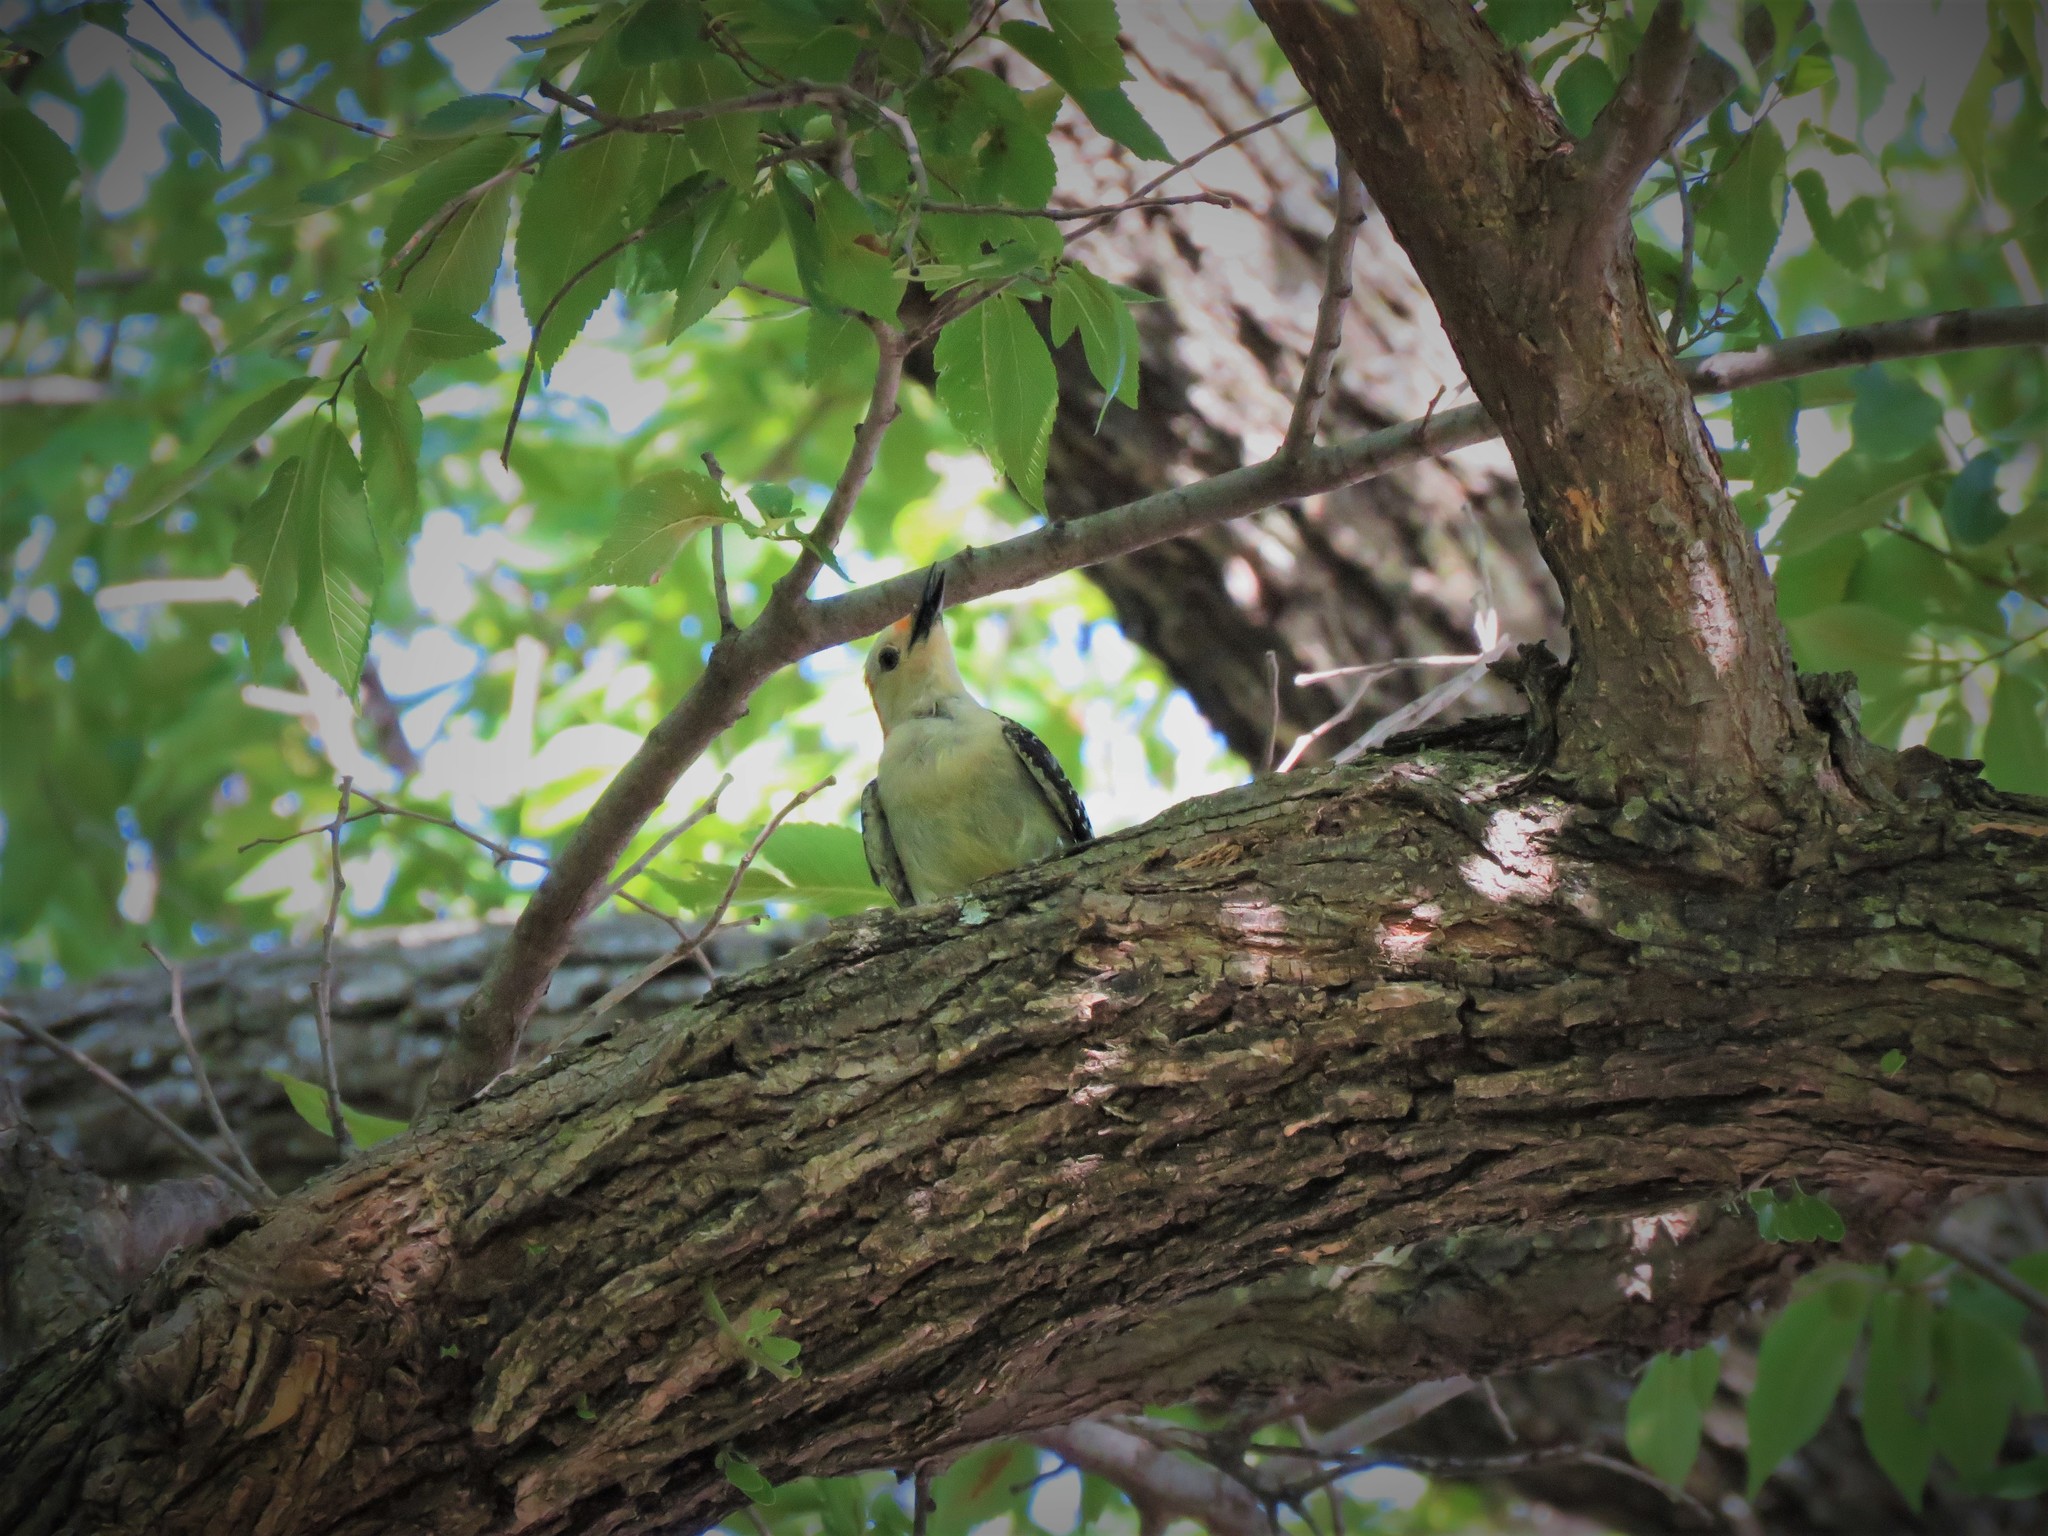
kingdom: Animalia
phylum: Chordata
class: Aves
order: Piciformes
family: Picidae
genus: Melanerpes
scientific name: Melanerpes carolinus
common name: Red-bellied woodpecker
